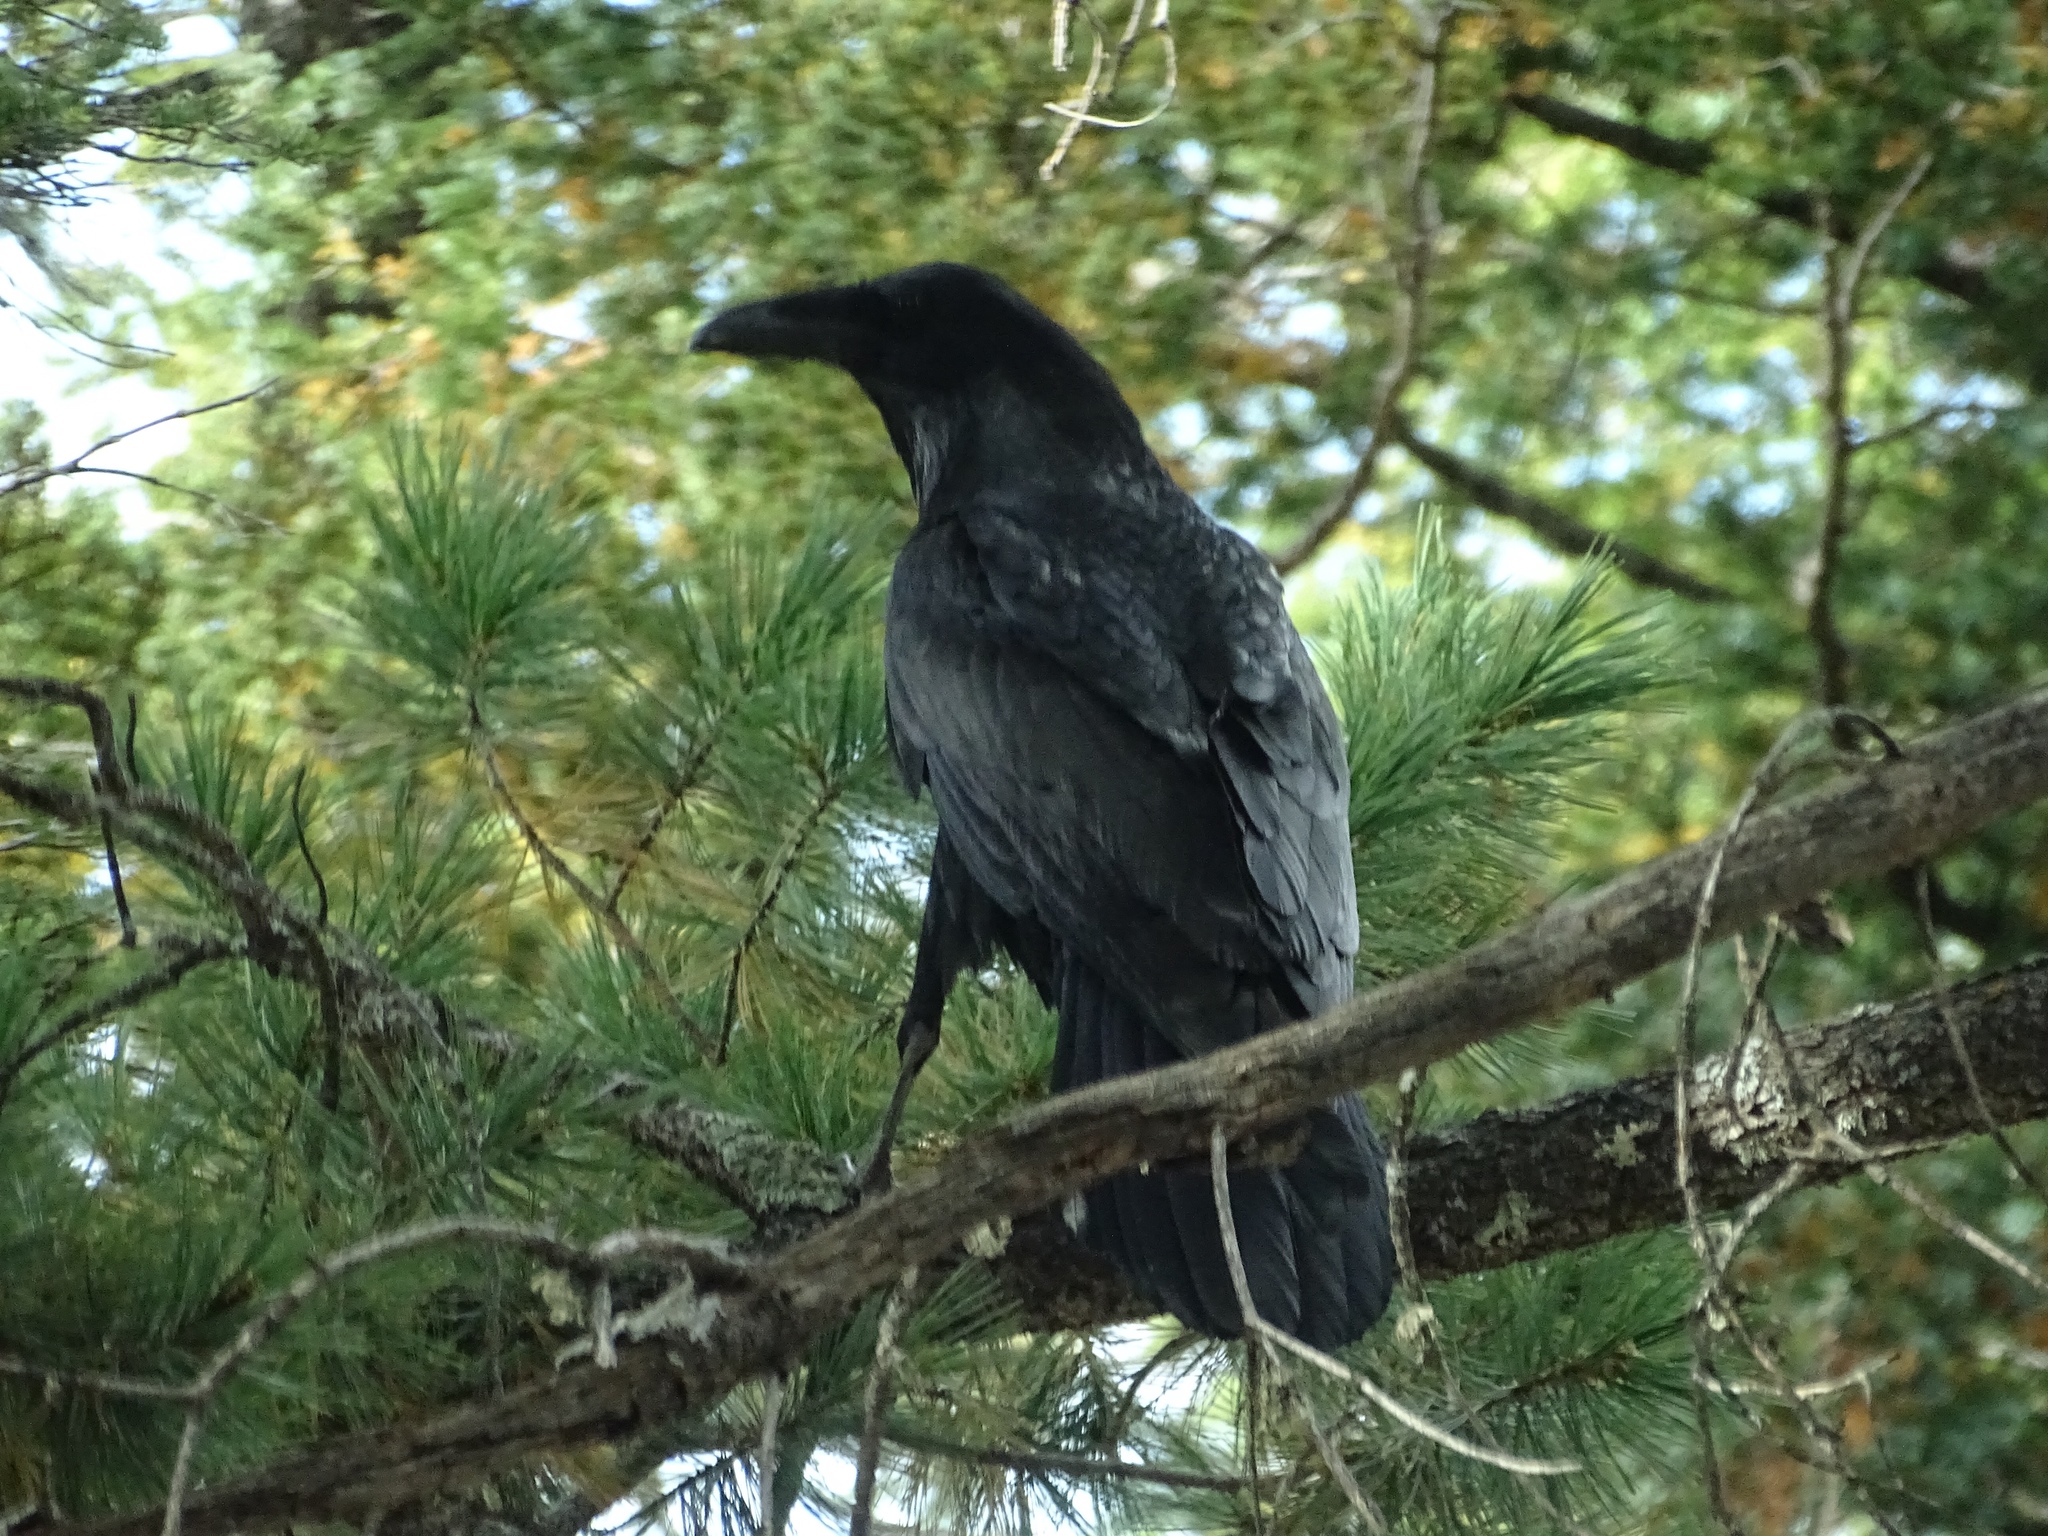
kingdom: Animalia
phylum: Chordata
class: Aves
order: Passeriformes
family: Corvidae
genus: Corvus
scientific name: Corvus corax
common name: Common raven
